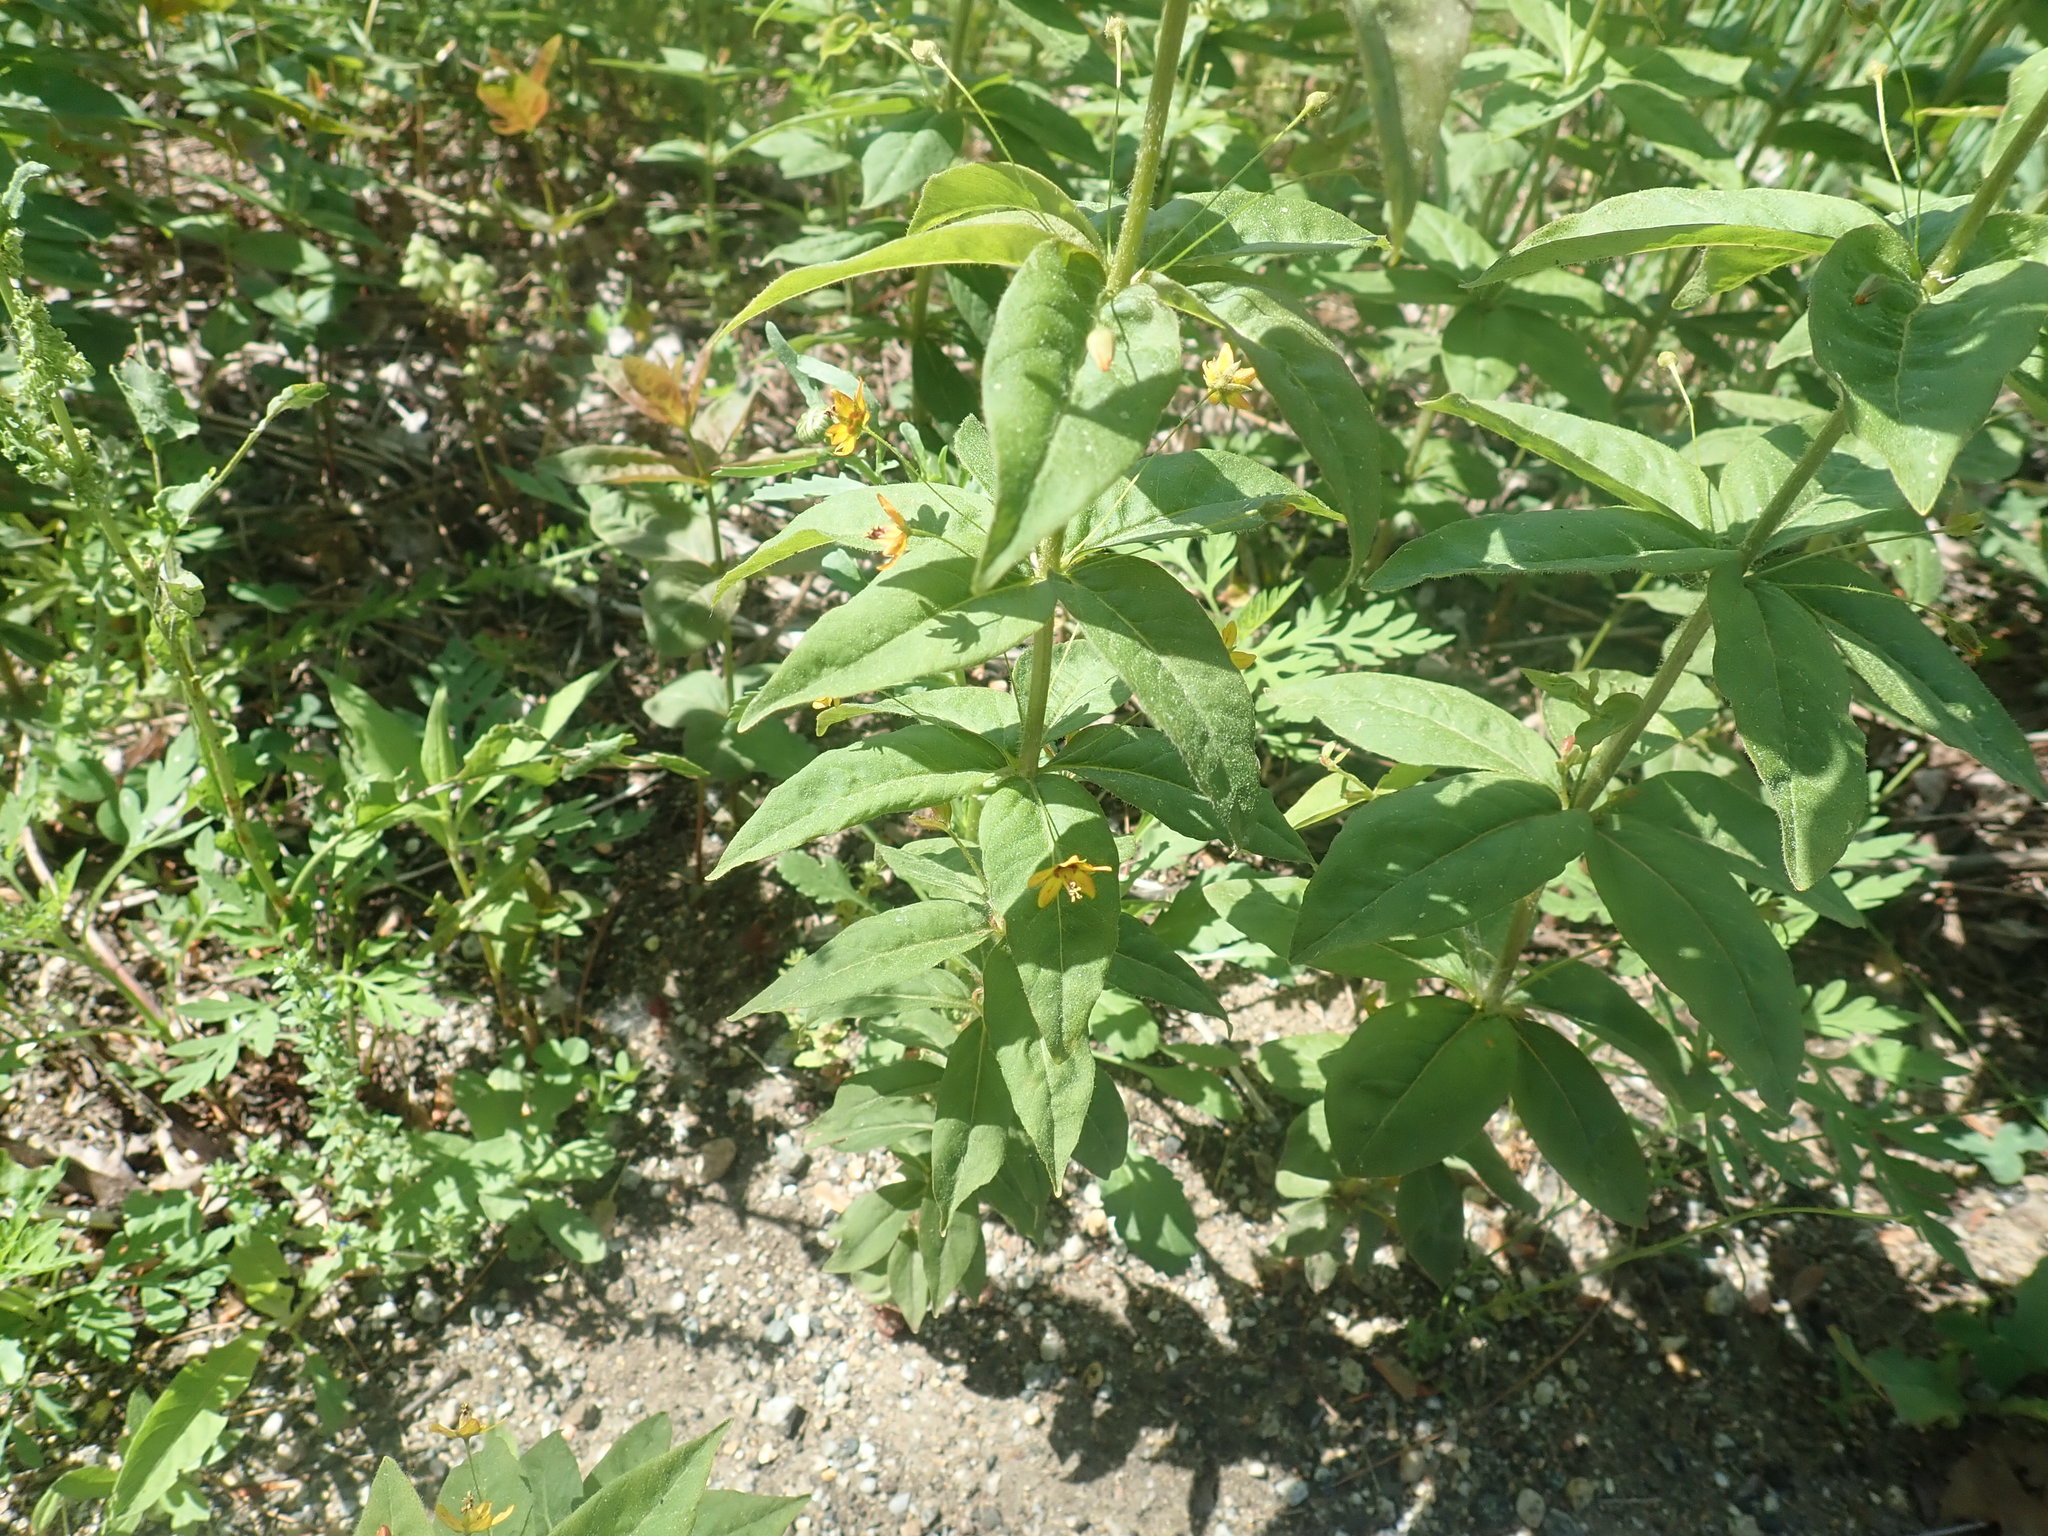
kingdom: Plantae
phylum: Tracheophyta
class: Magnoliopsida
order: Ericales
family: Primulaceae
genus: Lysimachia
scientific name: Lysimachia quadrifolia
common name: Whorled loosestrife
